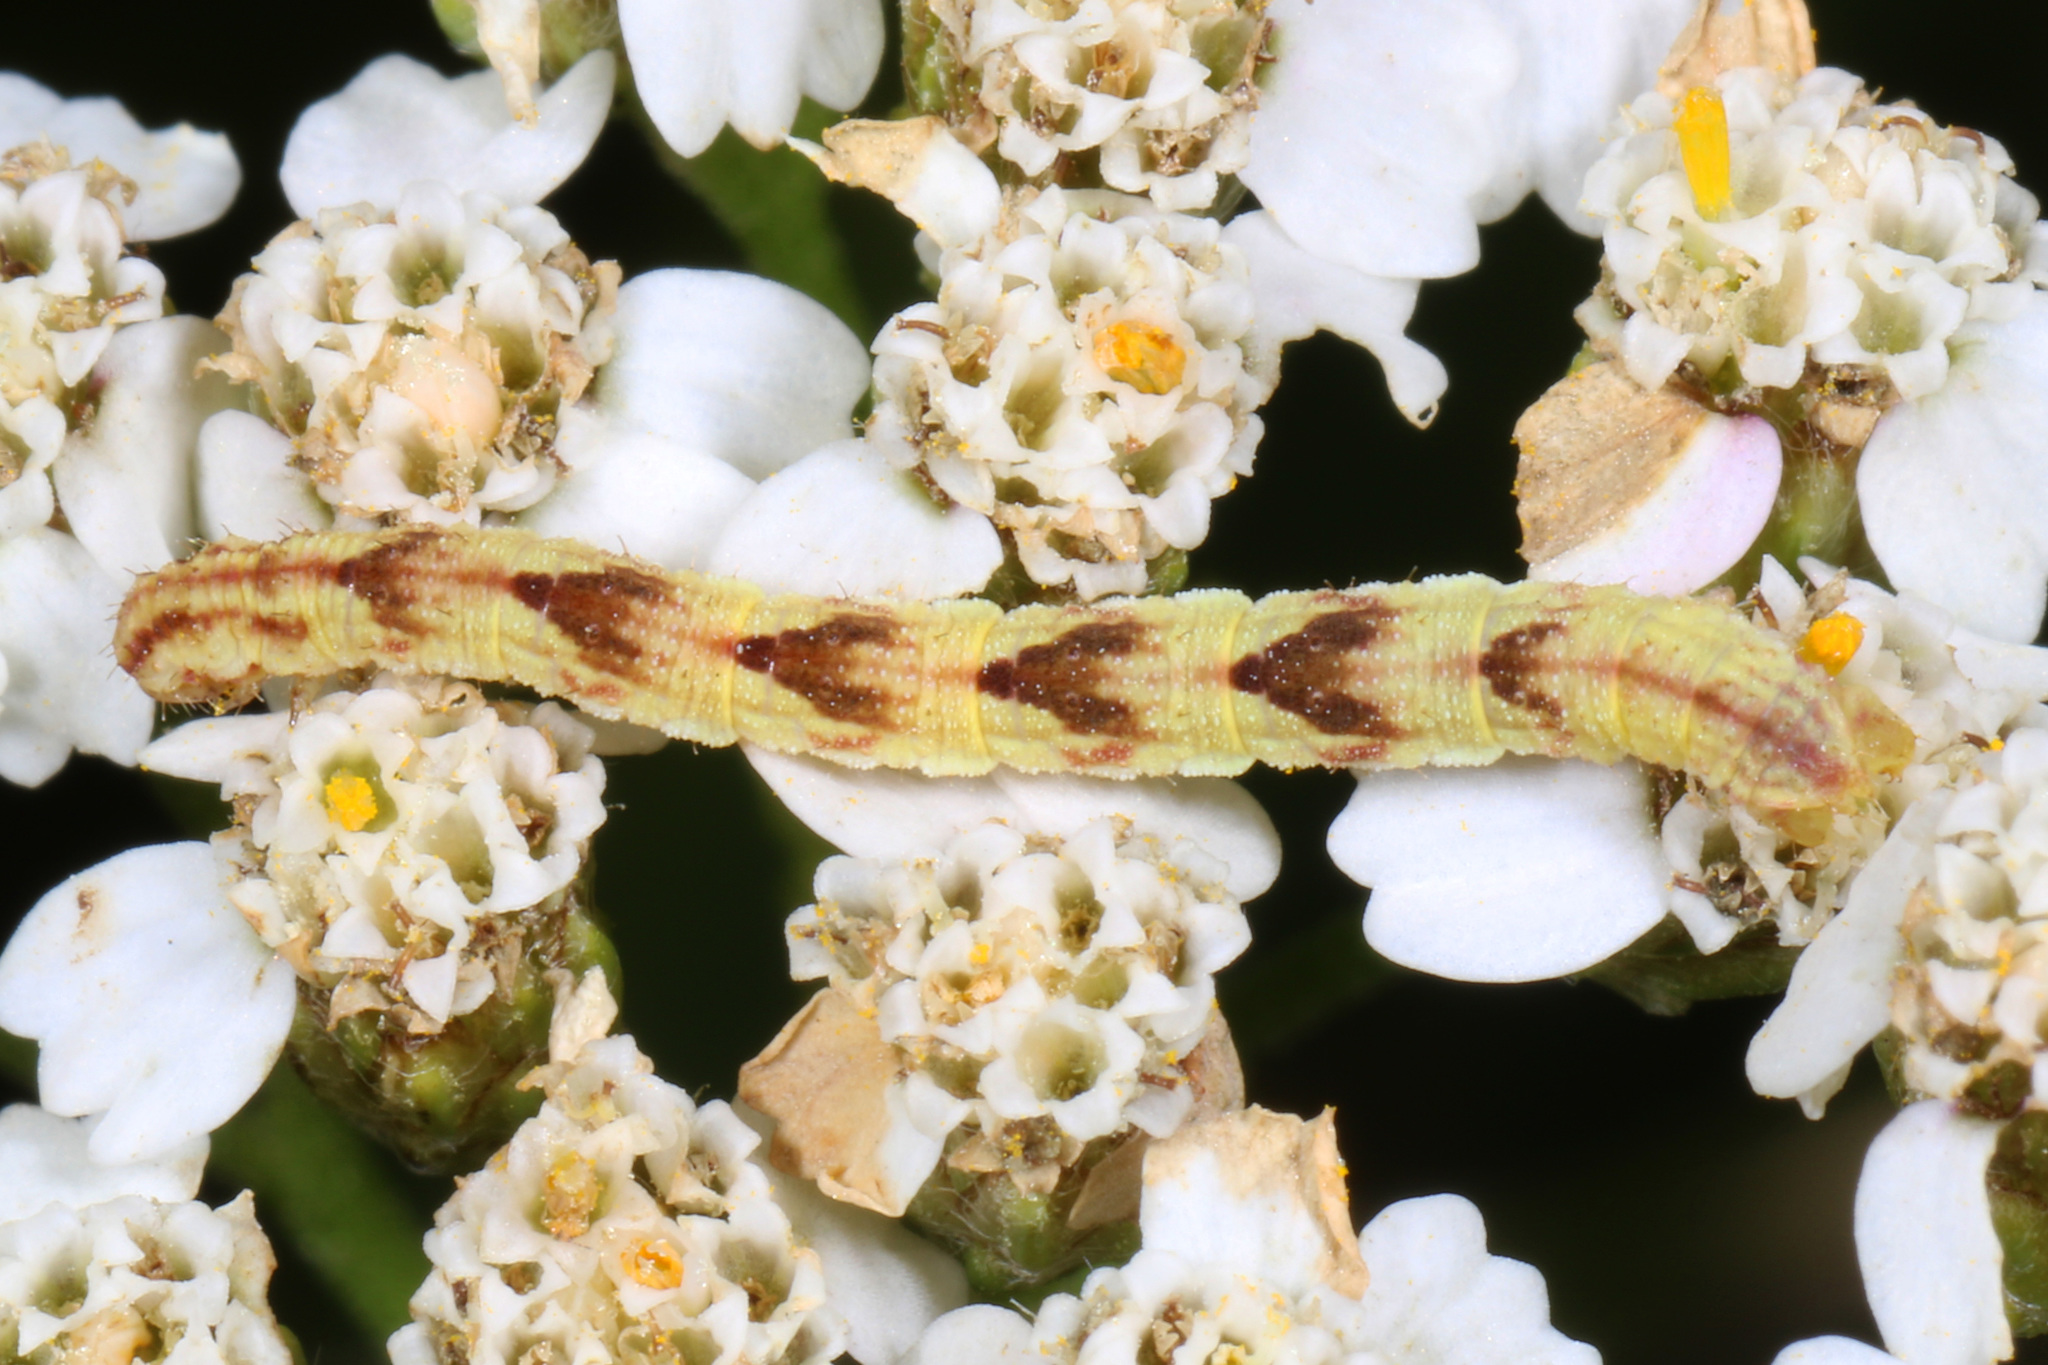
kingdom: Animalia
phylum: Arthropoda
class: Insecta
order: Lepidoptera
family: Geometridae
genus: Eupithecia
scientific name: Eupithecia miserulata
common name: Common eupithecia
